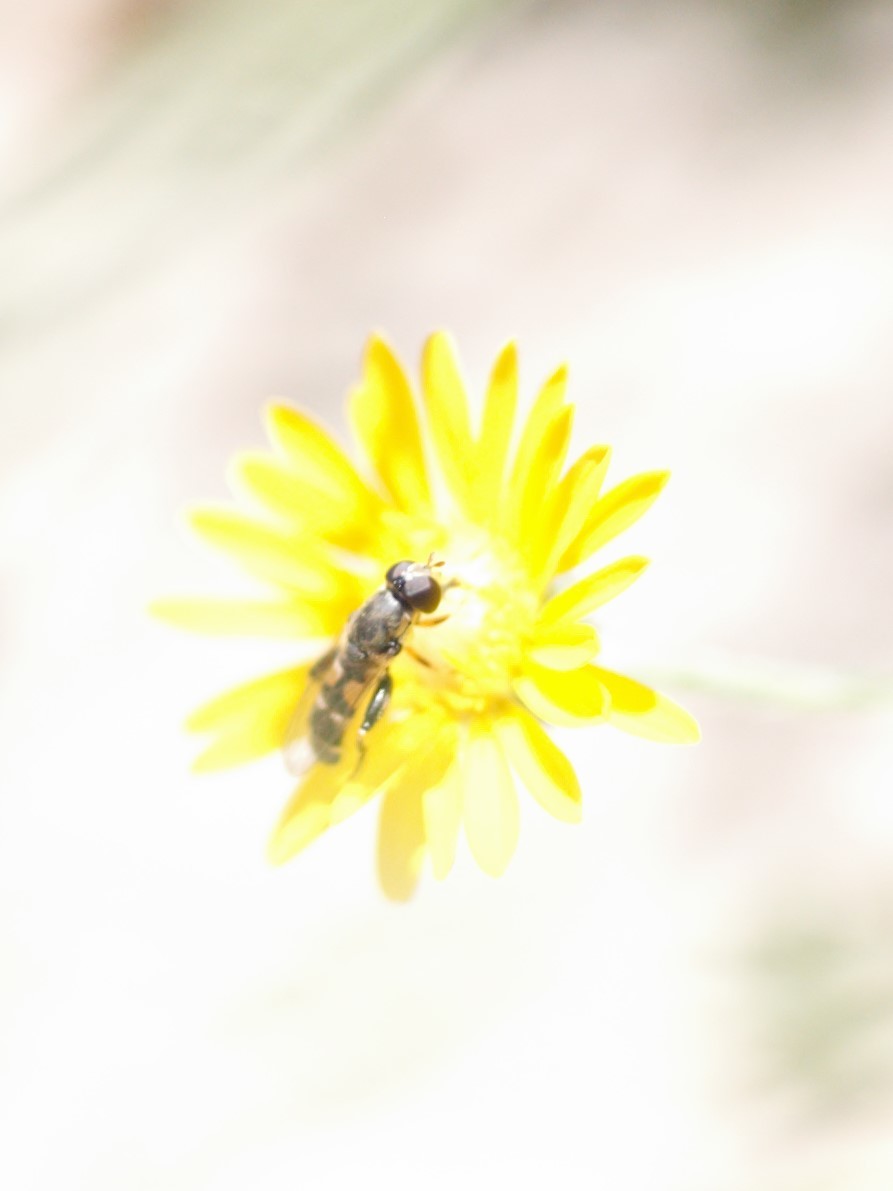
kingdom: Animalia
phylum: Arthropoda
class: Insecta
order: Diptera
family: Syrphidae
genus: Syritta
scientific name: Syritta pipiens
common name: Hover fly
